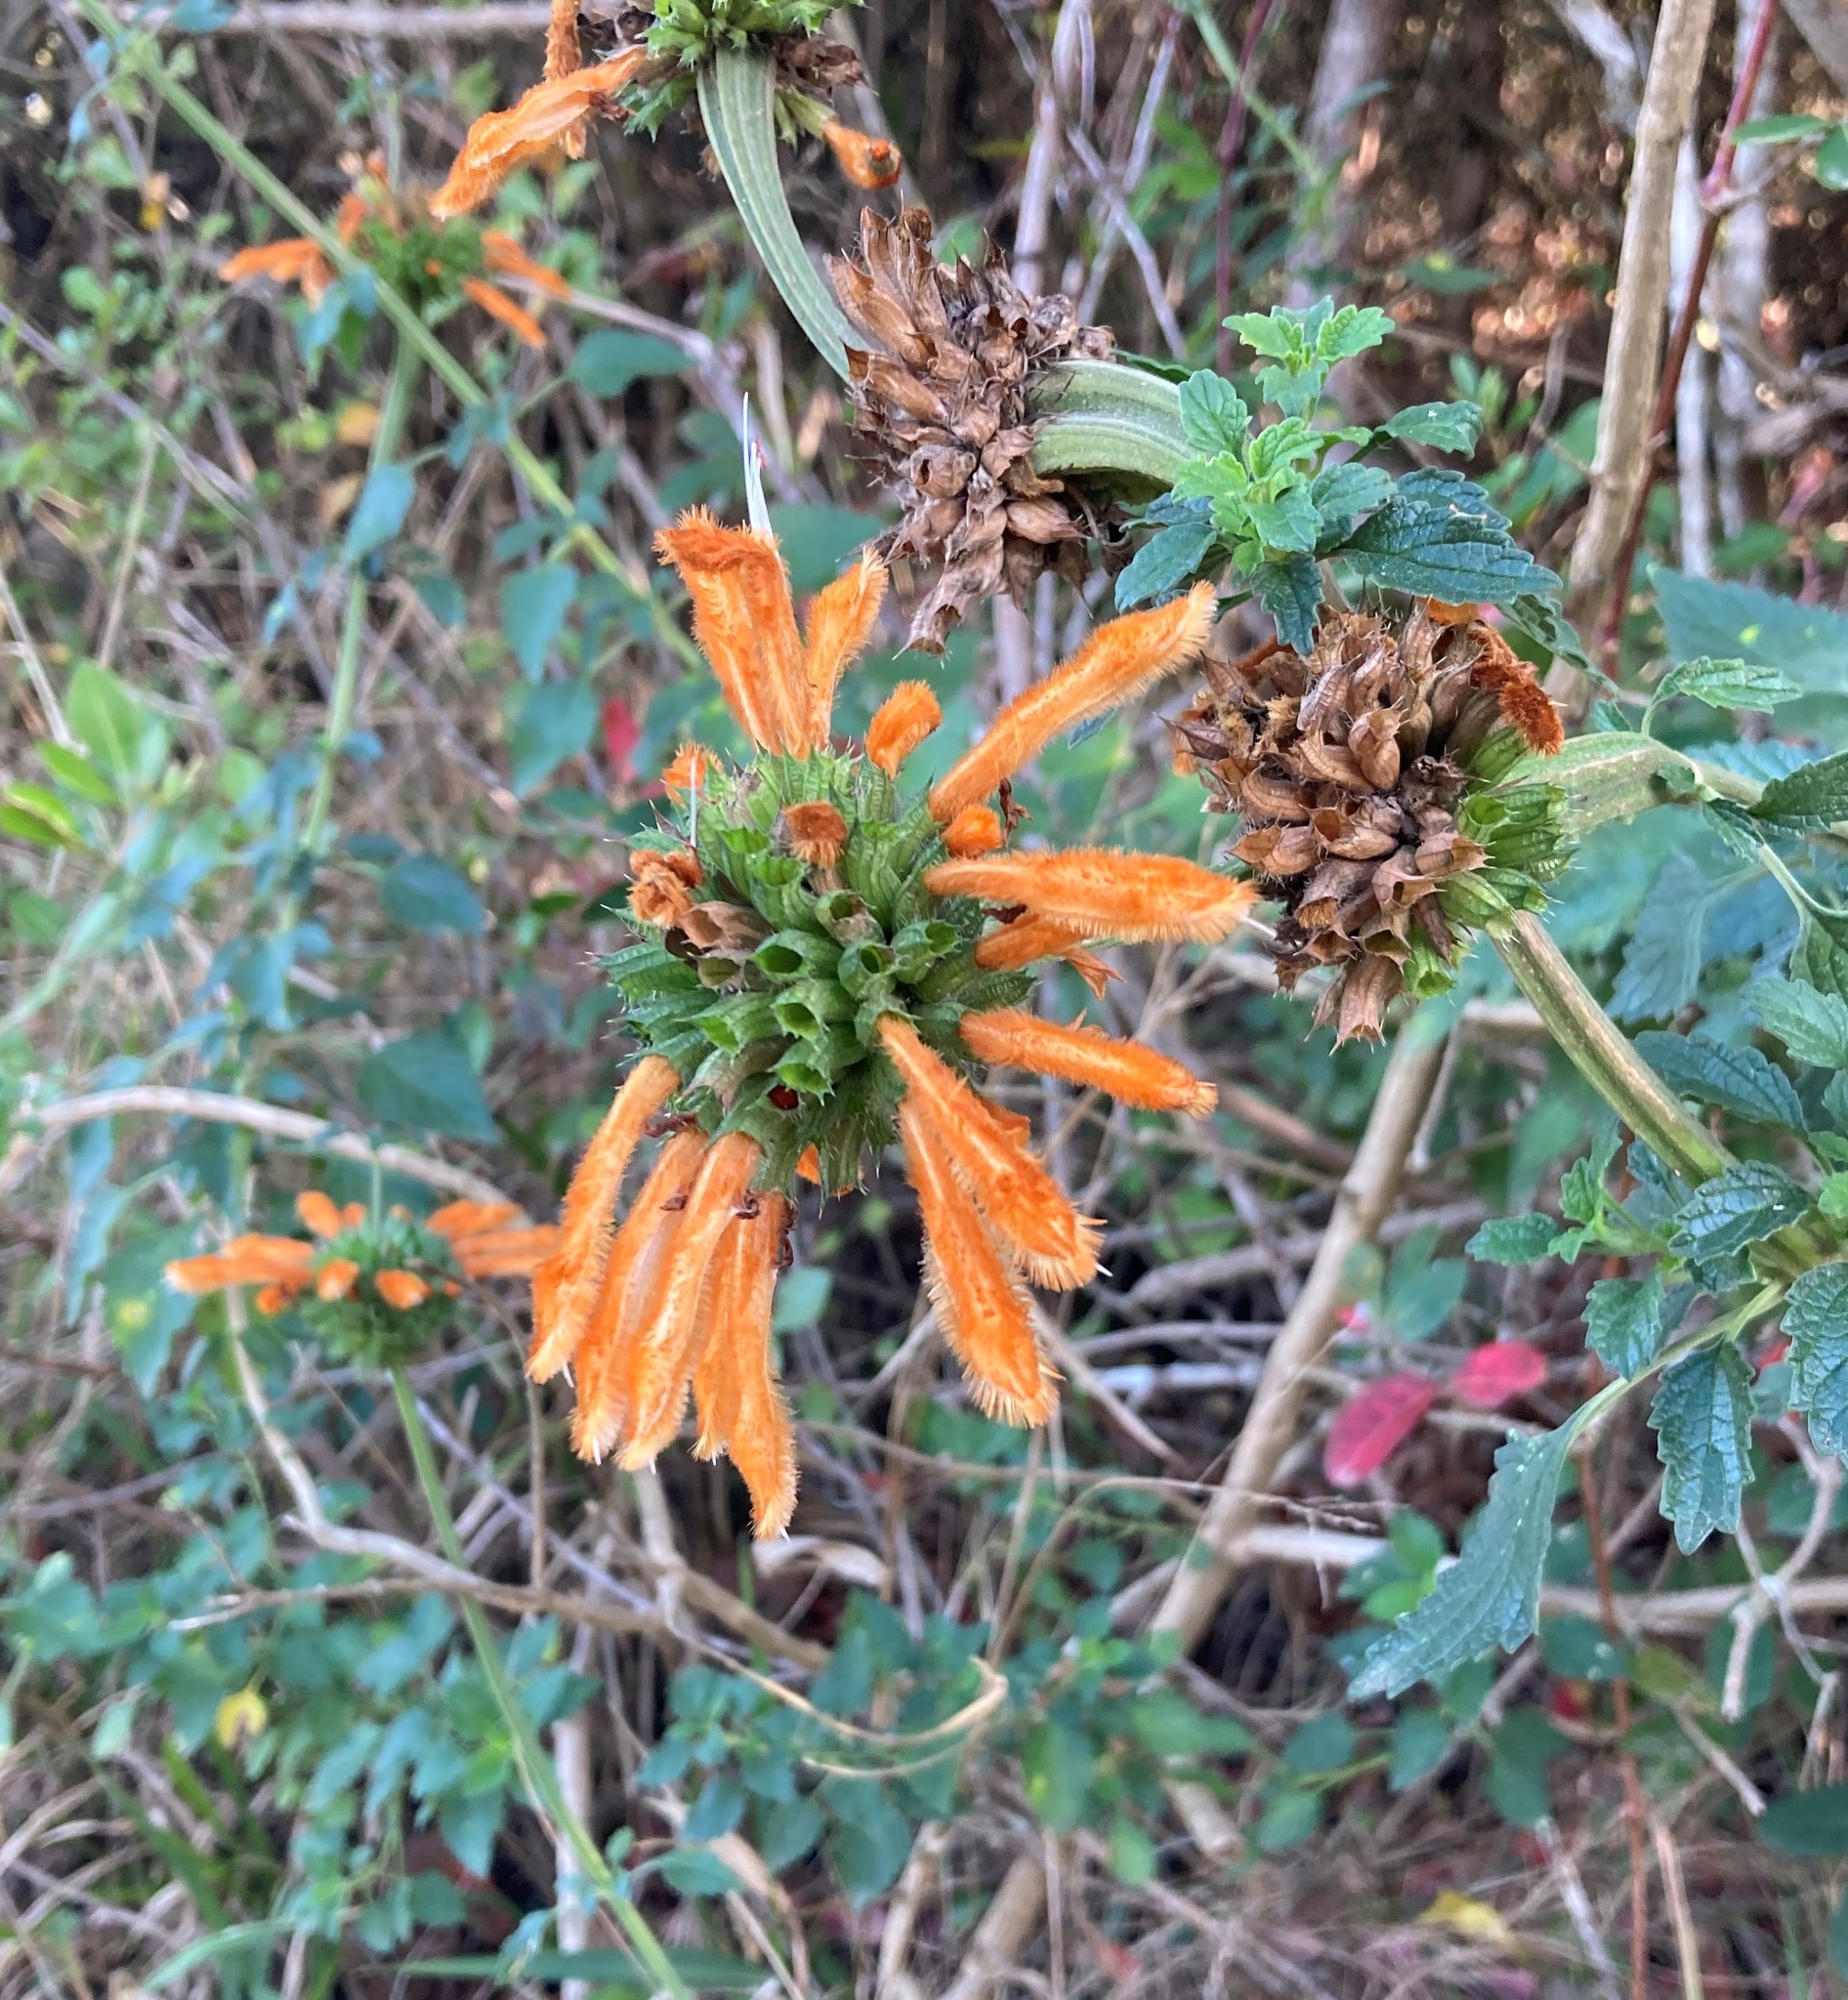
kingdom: Plantae
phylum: Tracheophyta
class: Magnoliopsida
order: Lamiales
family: Lamiaceae
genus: Leonotis
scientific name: Leonotis ocymifolia
